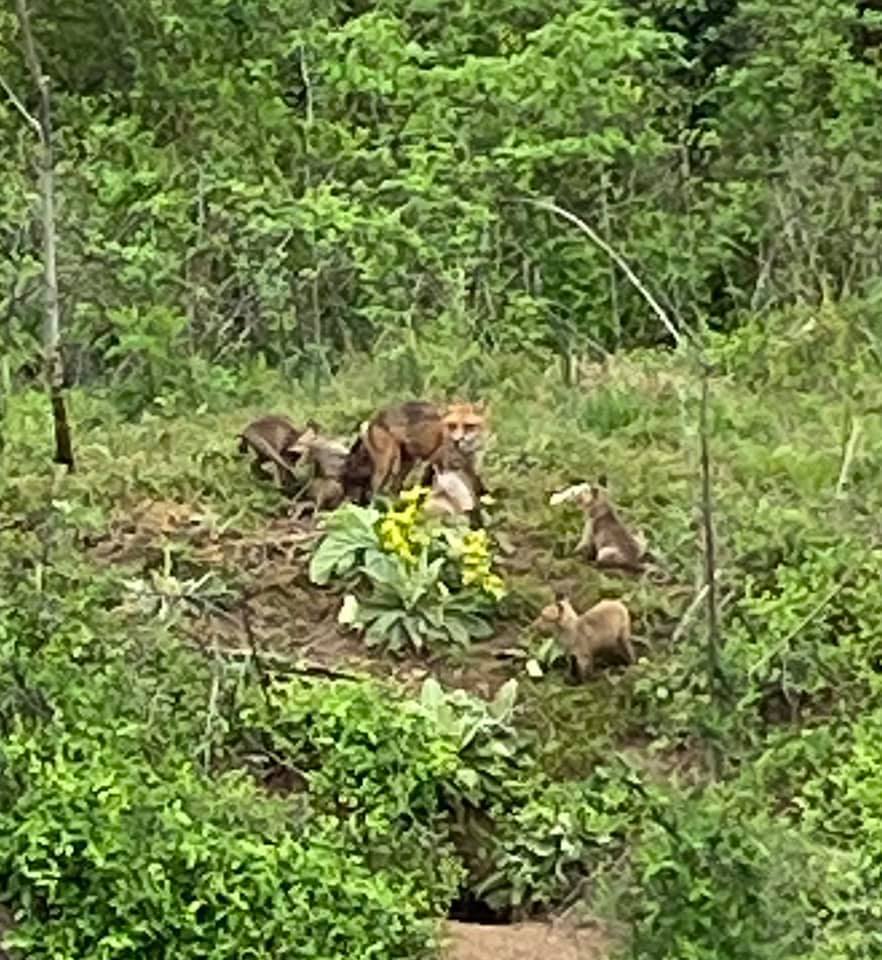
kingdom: Animalia
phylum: Chordata
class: Mammalia
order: Carnivora
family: Canidae
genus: Vulpes
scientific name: Vulpes vulpes
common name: Red fox
